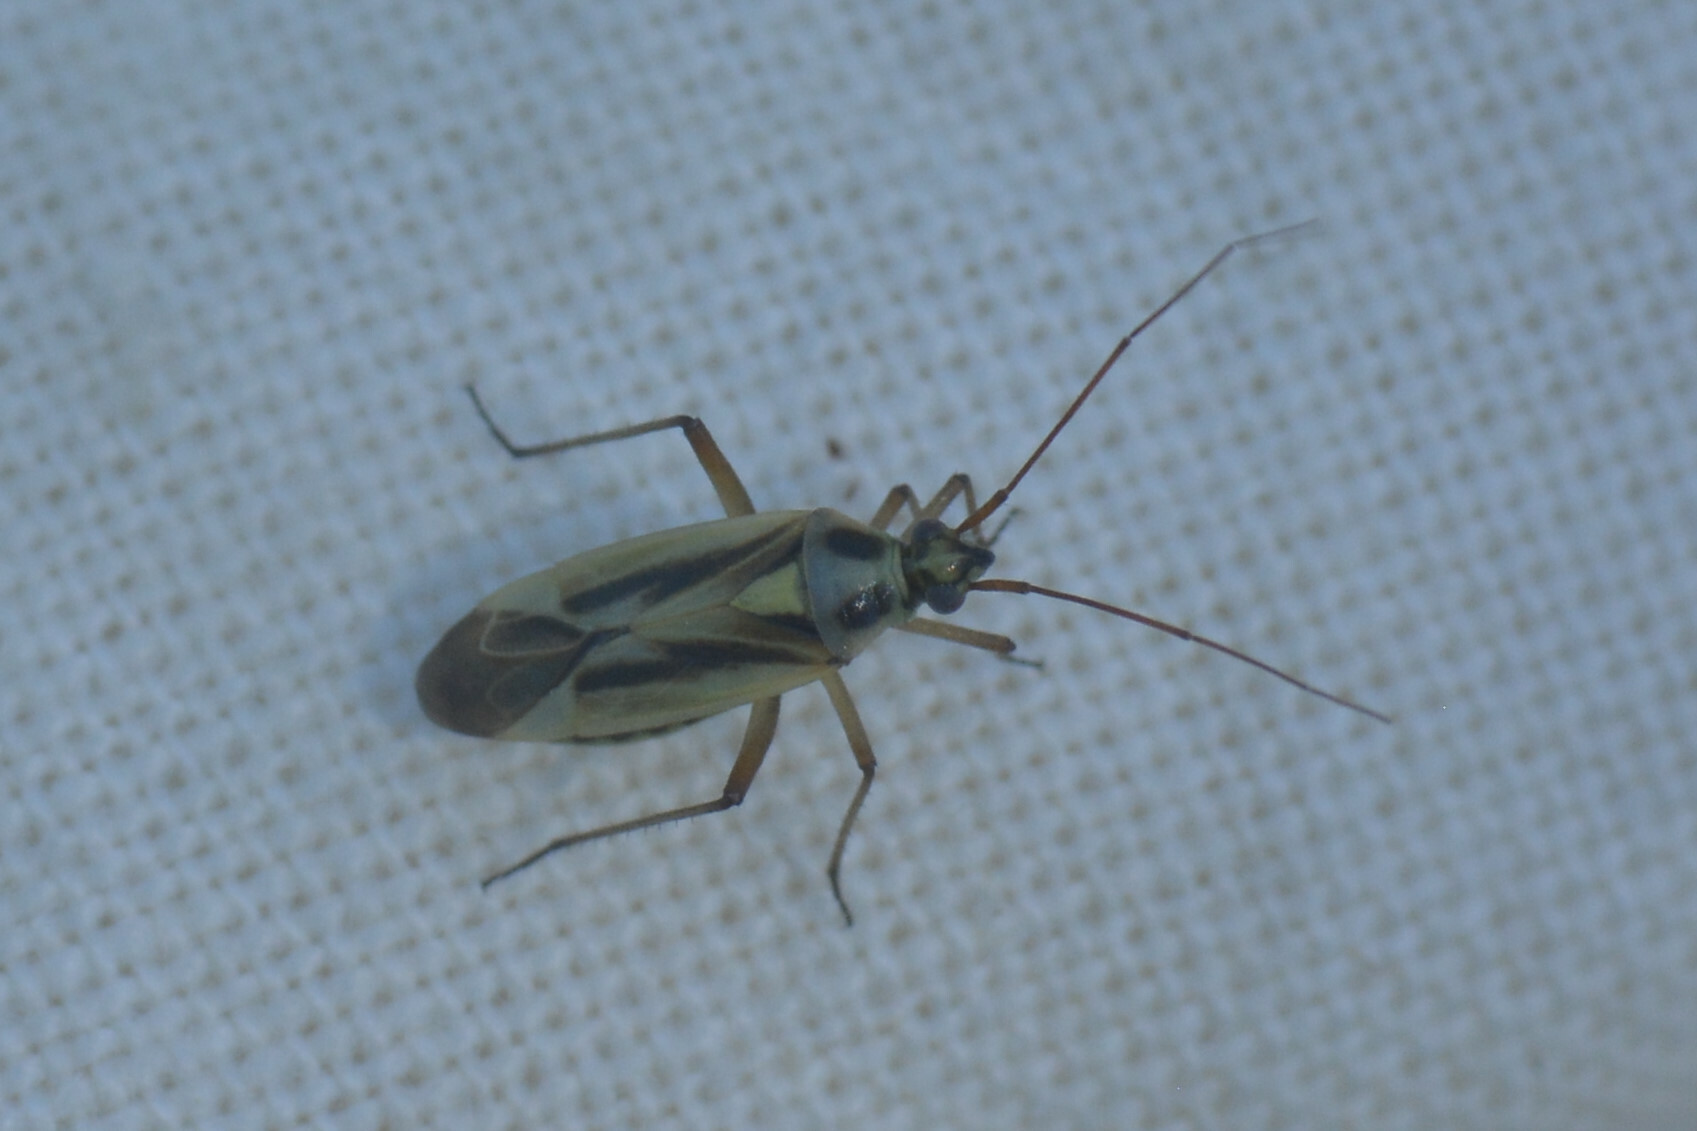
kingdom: Animalia
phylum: Arthropoda
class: Insecta
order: Hemiptera
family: Miridae
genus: Stenotus
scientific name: Stenotus binotatus
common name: Plant bug
